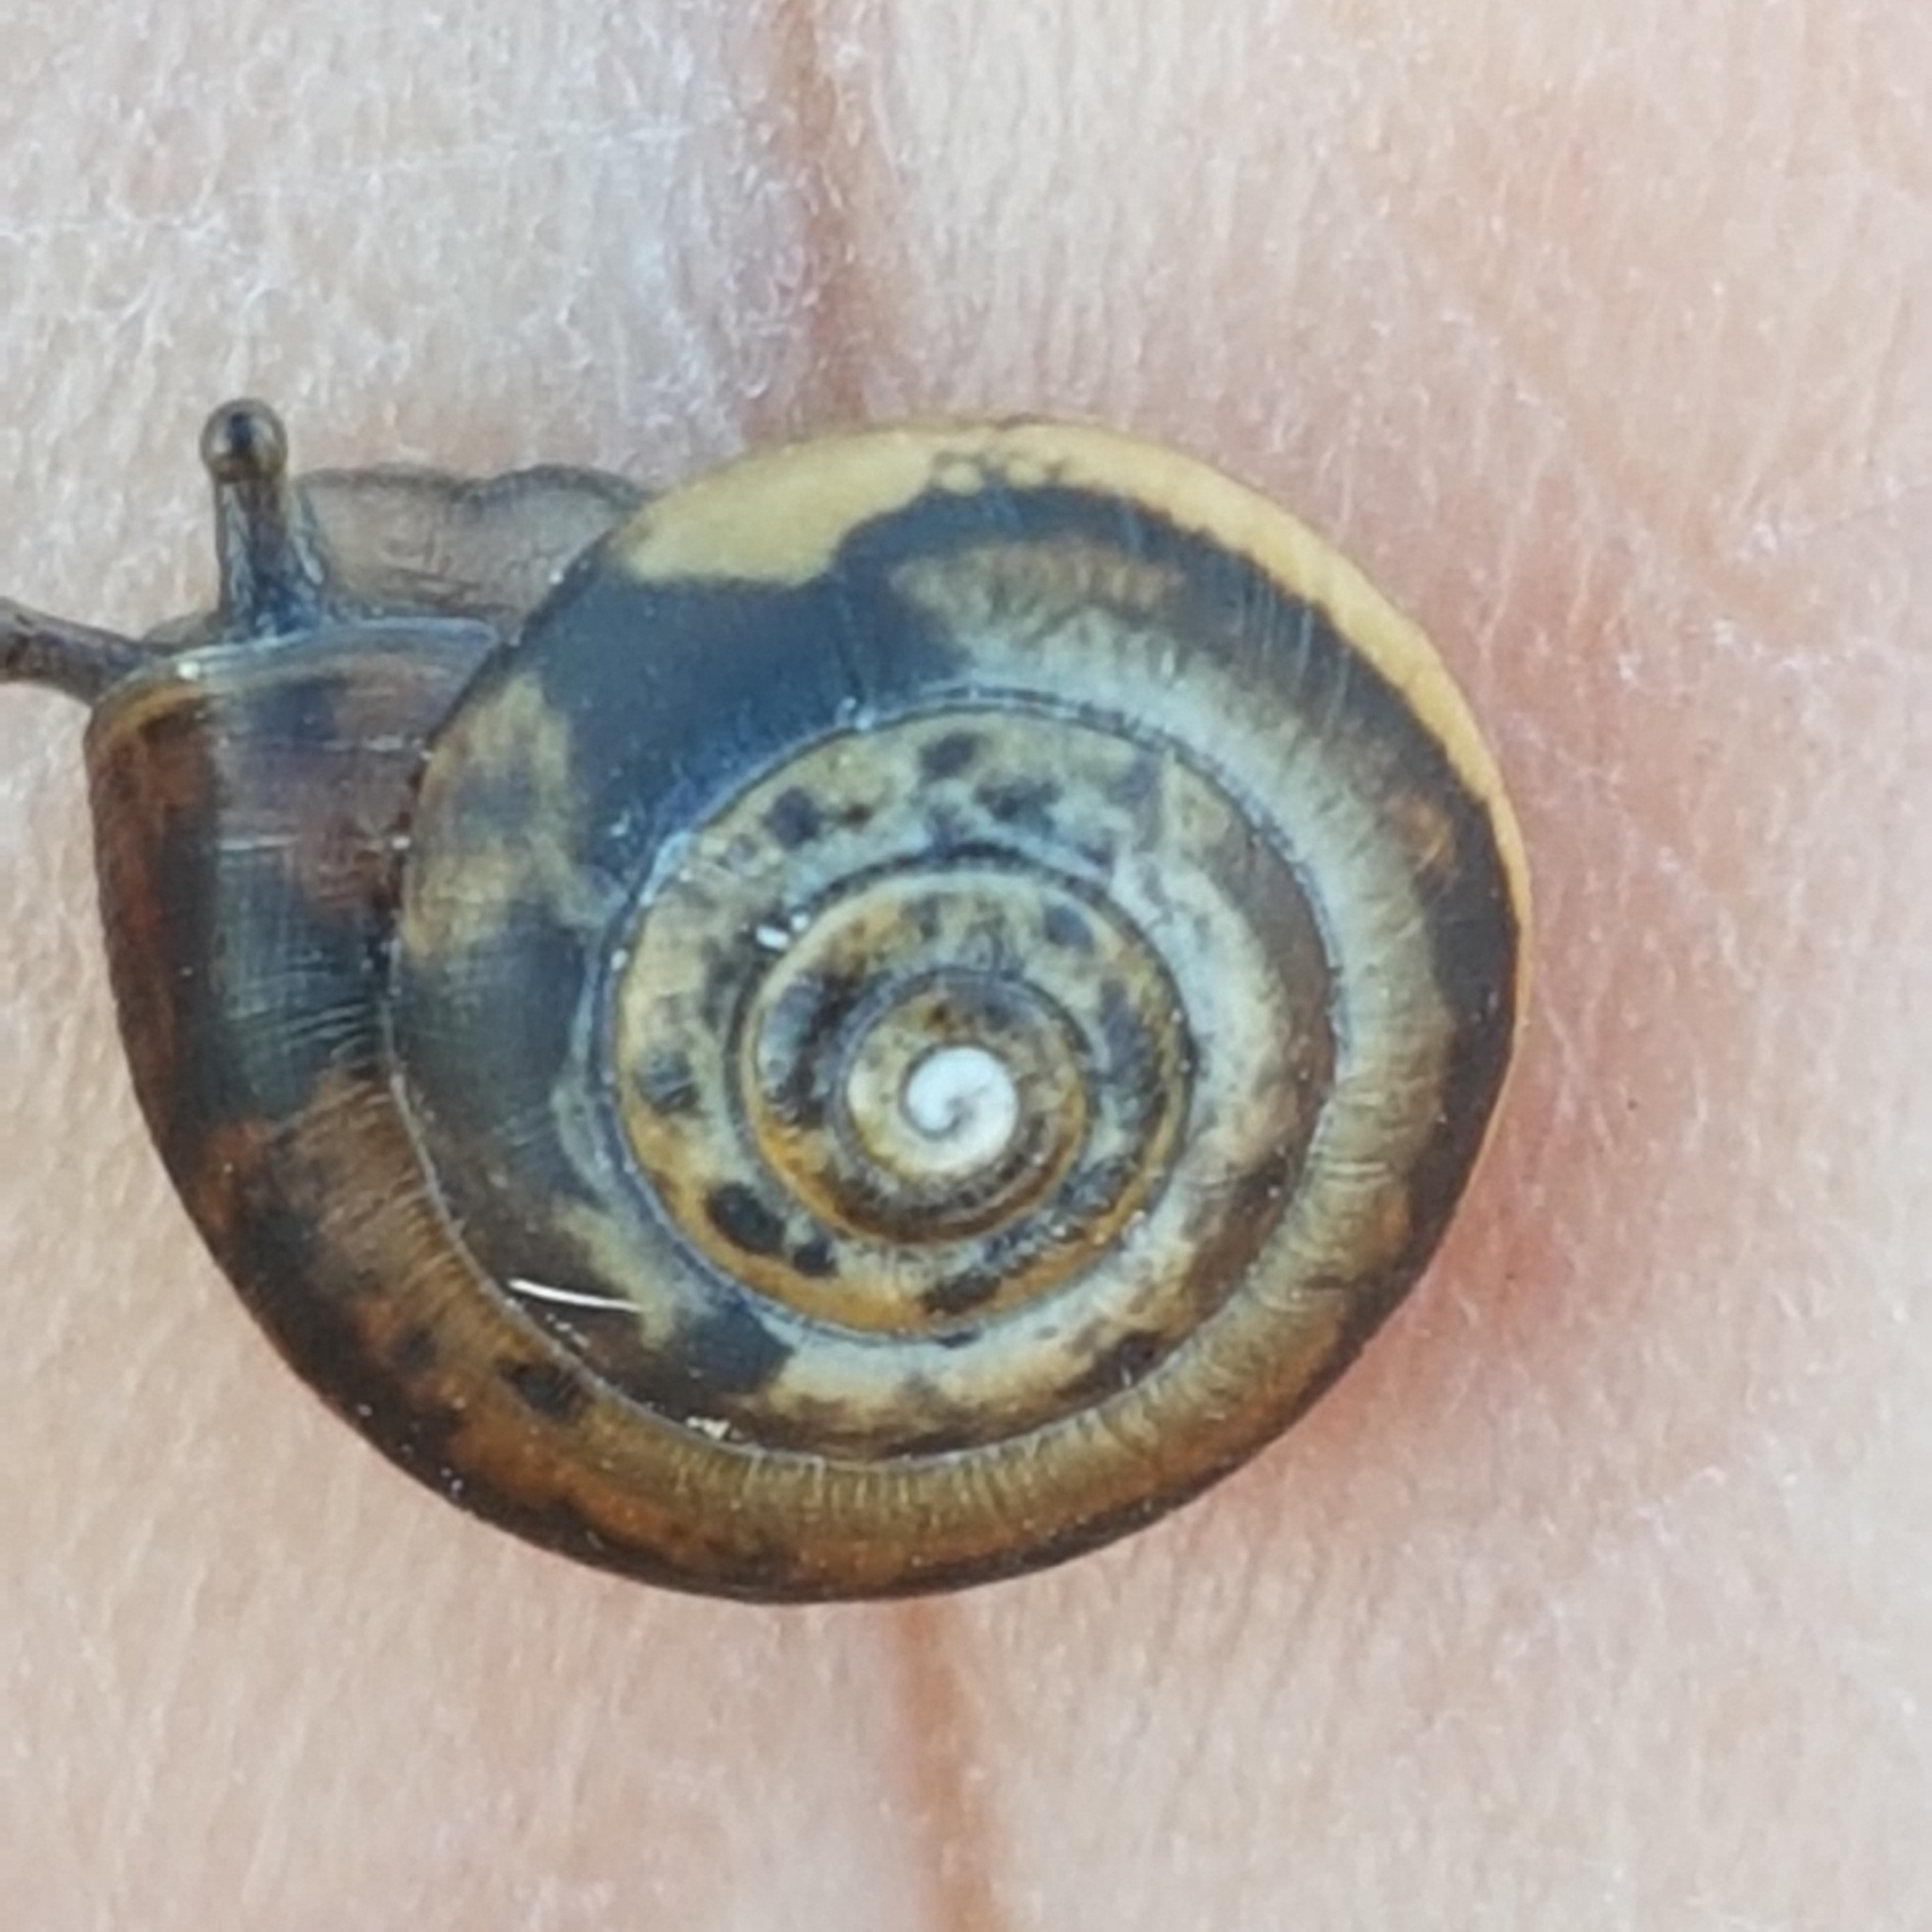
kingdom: Animalia
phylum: Mollusca
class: Gastropoda
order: Stylommatophora
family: Hygromiidae
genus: Monacha
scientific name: Monacha cantiana
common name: Kentish snail
